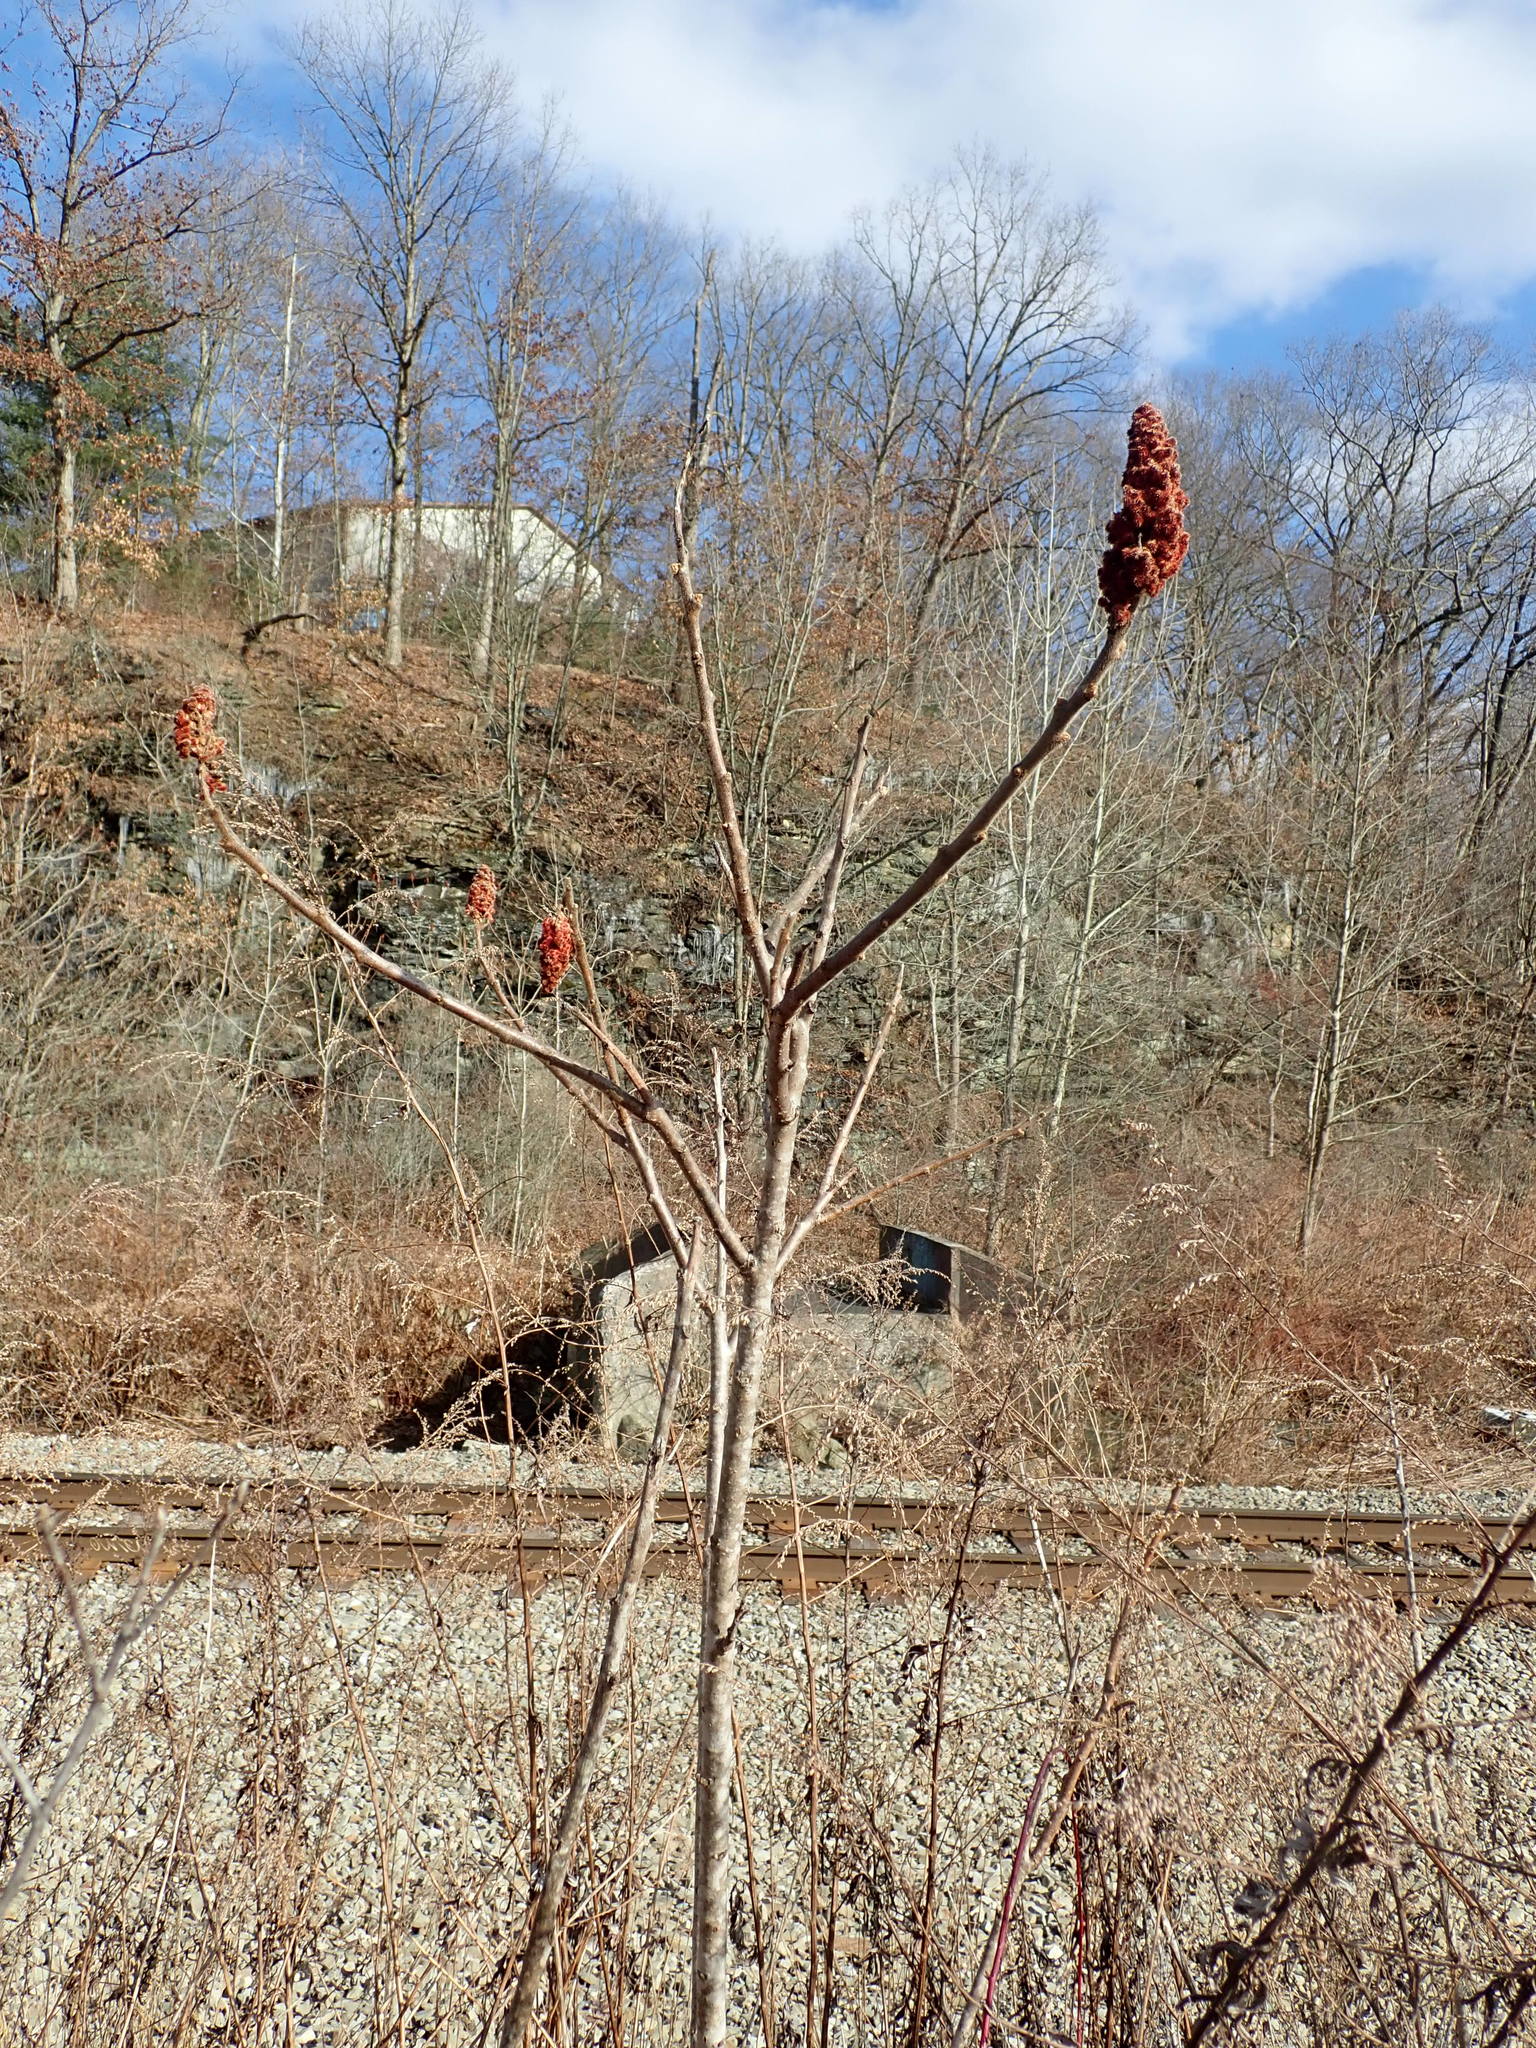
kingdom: Plantae
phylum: Tracheophyta
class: Magnoliopsida
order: Sapindales
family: Anacardiaceae
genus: Rhus
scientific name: Rhus typhina
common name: Staghorn sumac
